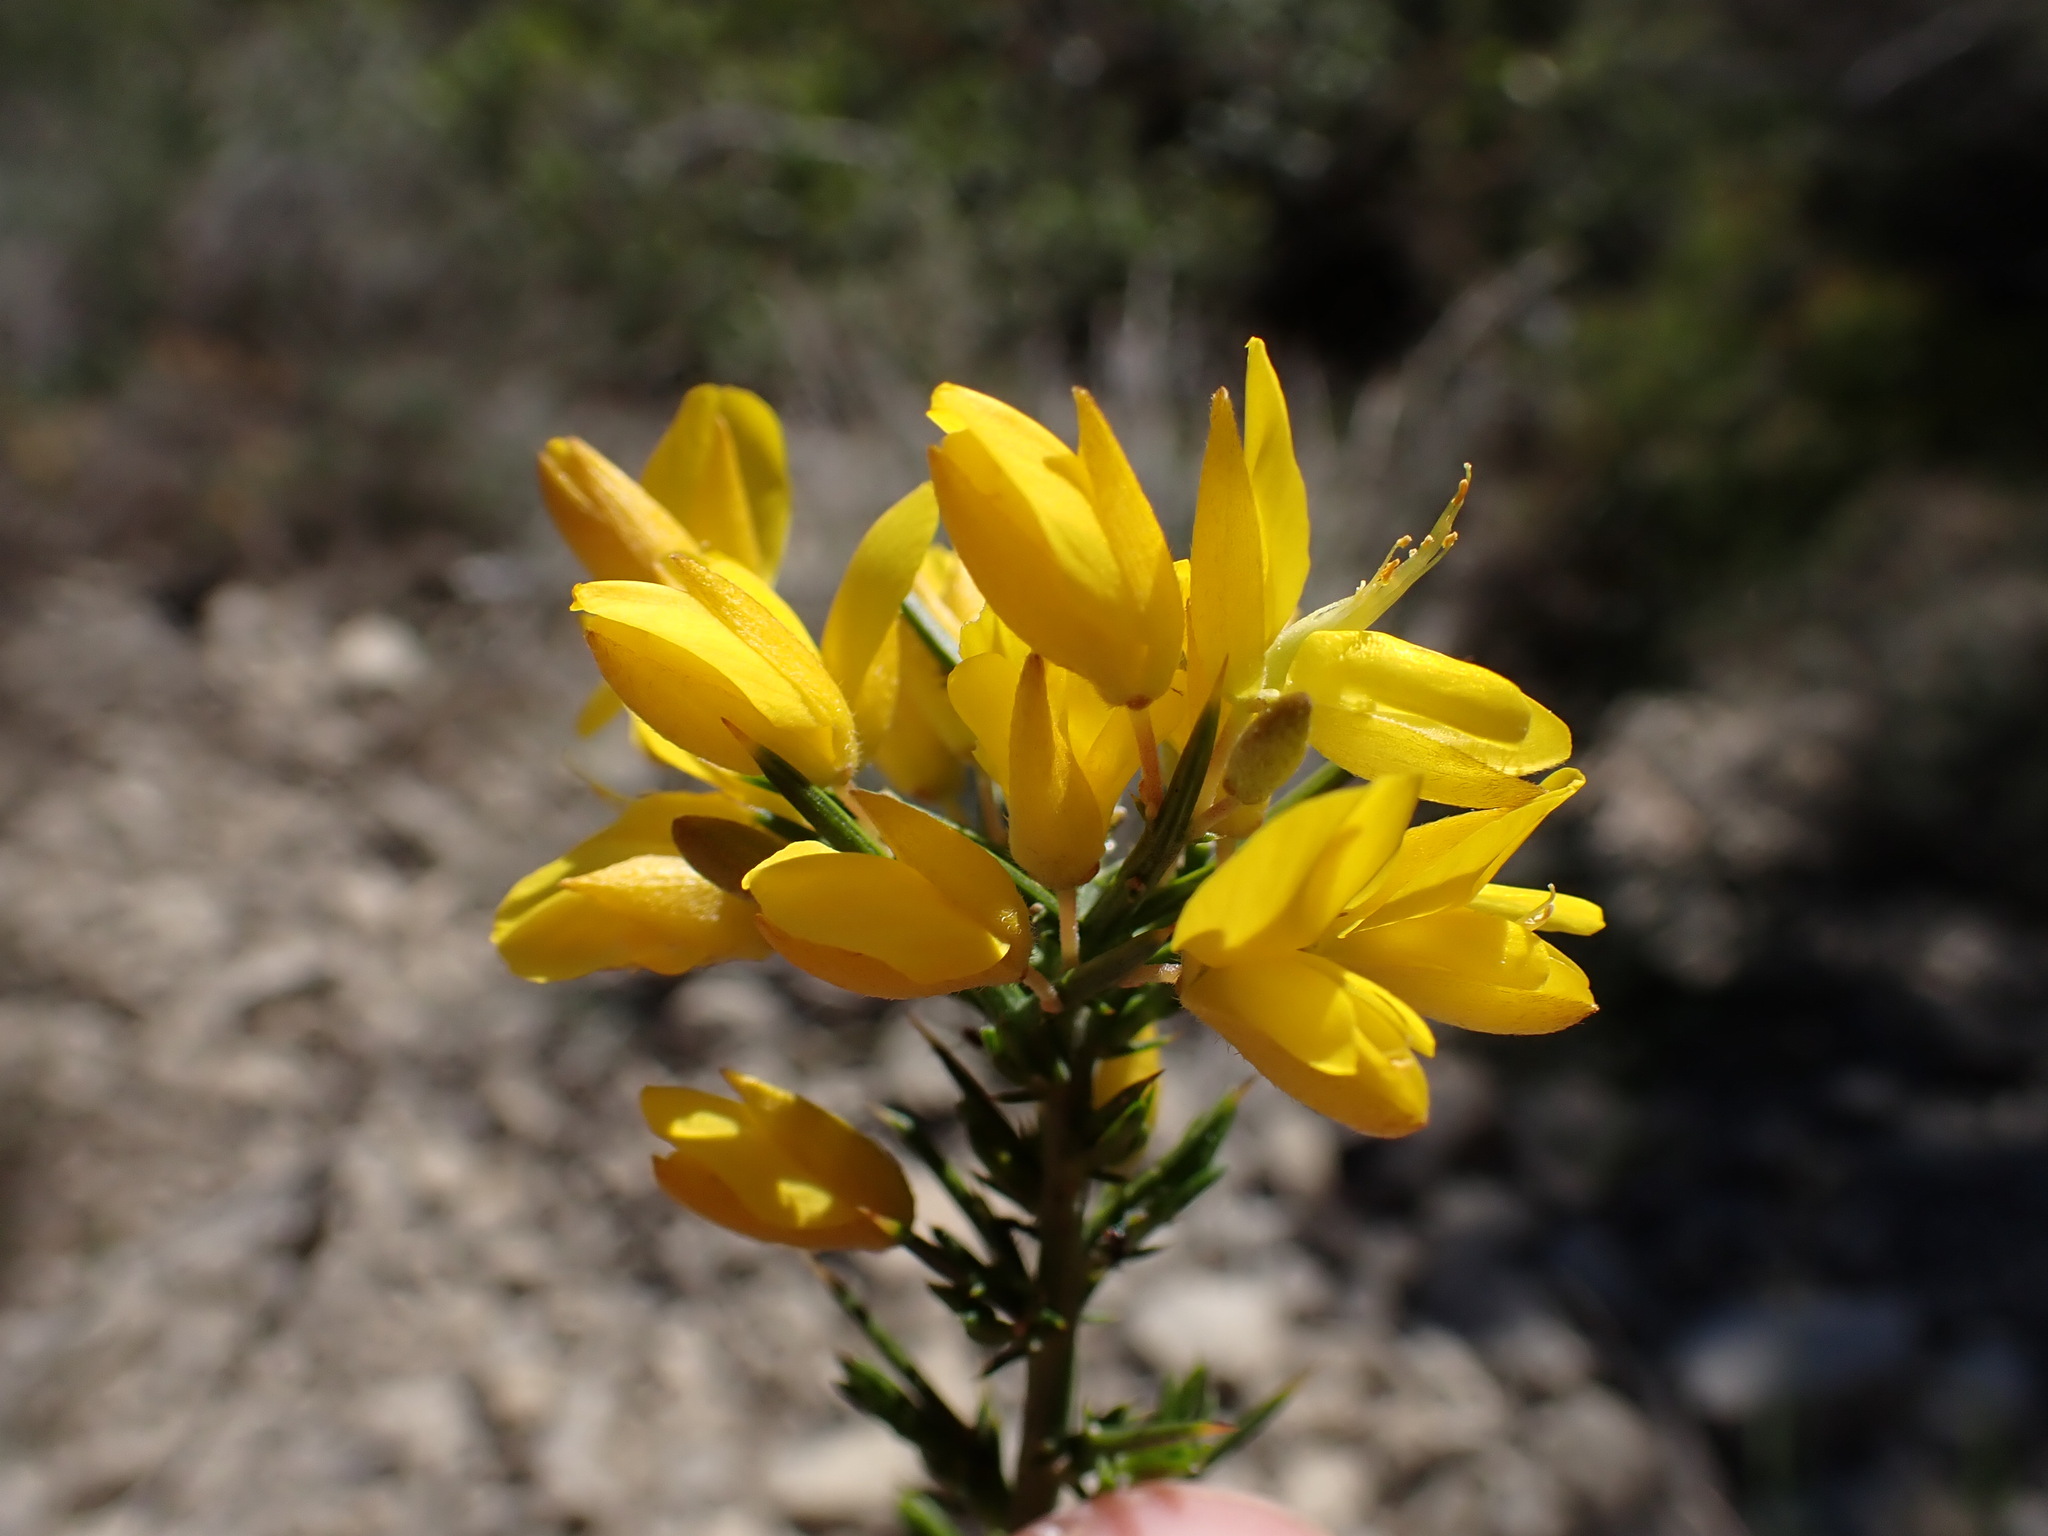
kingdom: Plantae
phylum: Tracheophyta
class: Magnoliopsida
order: Fabales
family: Fabaceae
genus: Ulex
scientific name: Ulex parviflorus
